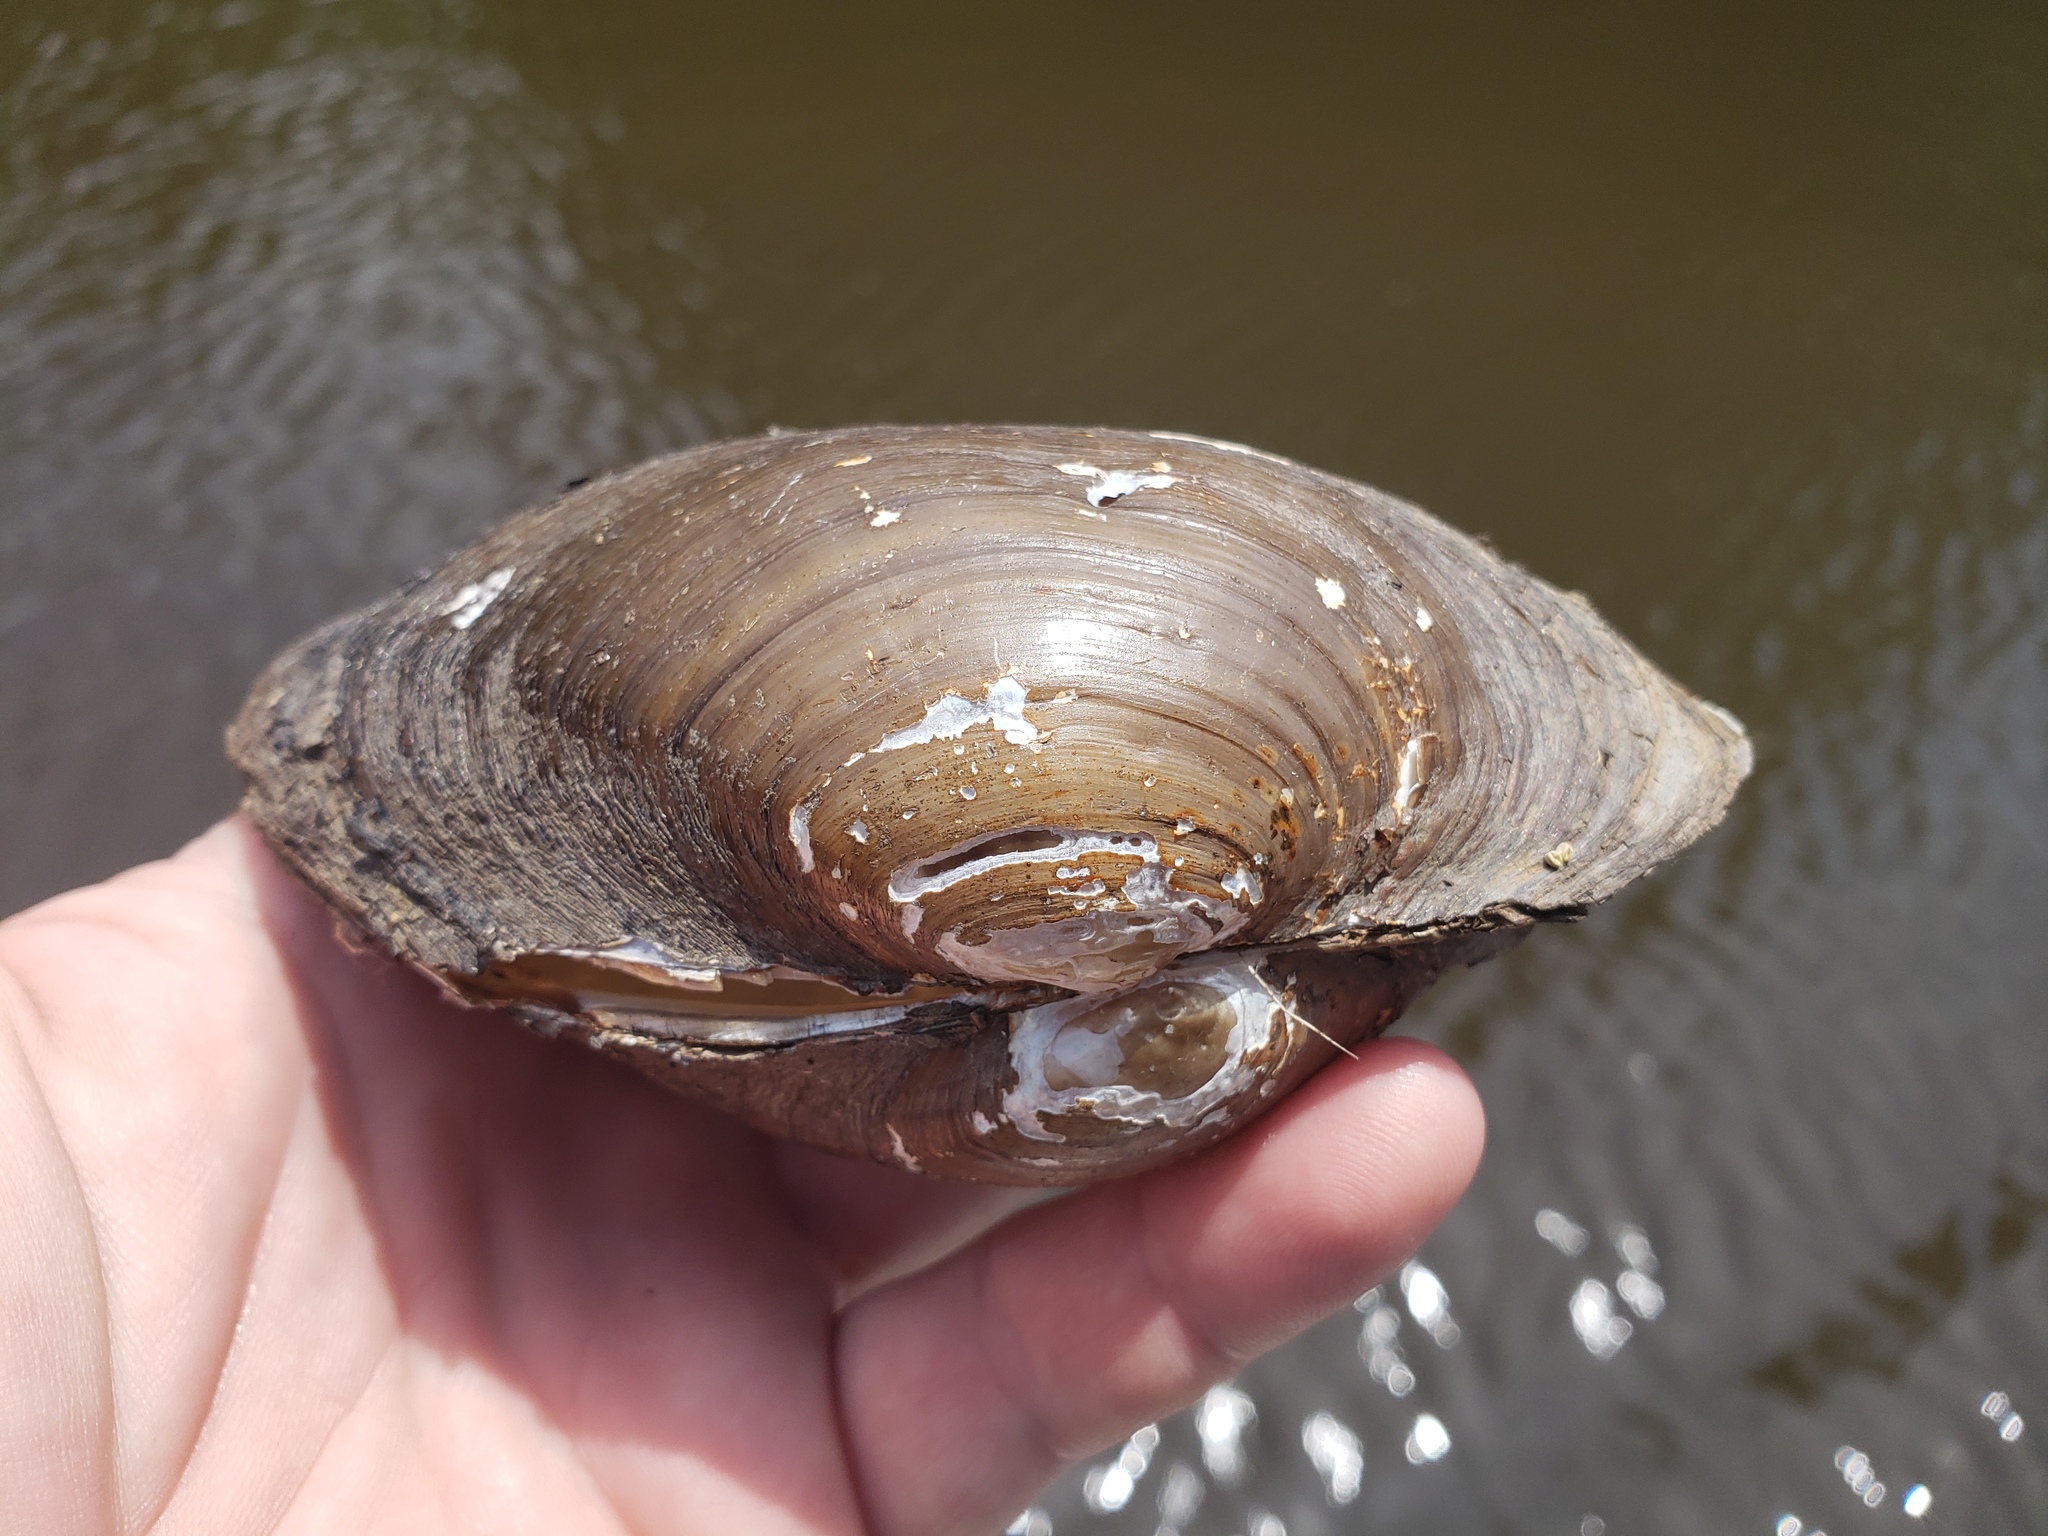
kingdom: Animalia
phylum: Mollusca
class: Bivalvia
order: Unionida
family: Unionidae
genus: Pyganodon
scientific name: Pyganodon grandis
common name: Giant floater
